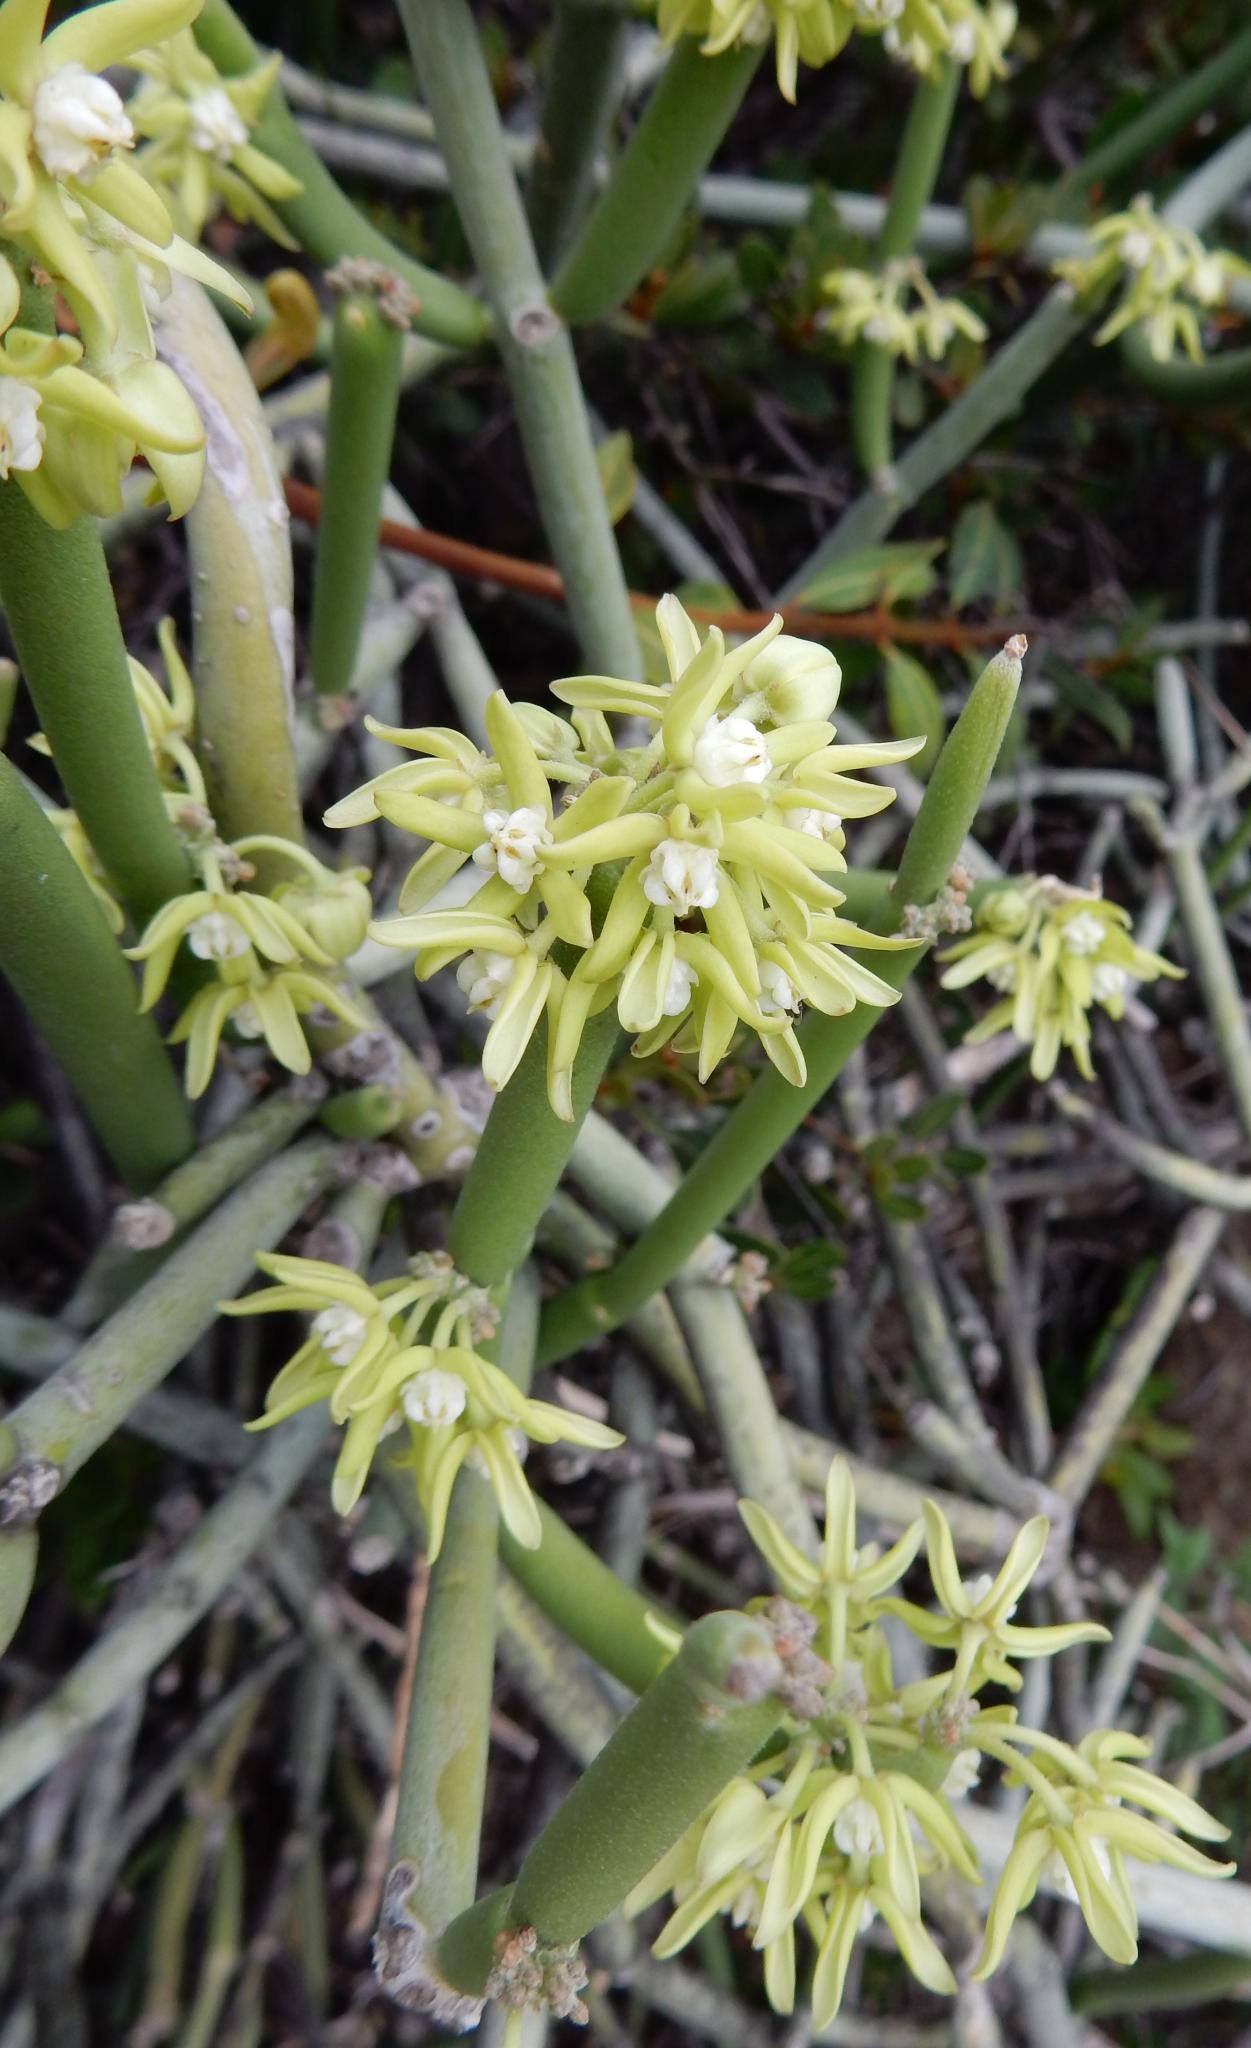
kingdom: Plantae
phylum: Tracheophyta
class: Magnoliopsida
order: Gentianales
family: Apocynaceae
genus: Cynanchum
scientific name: Cynanchum viminale
